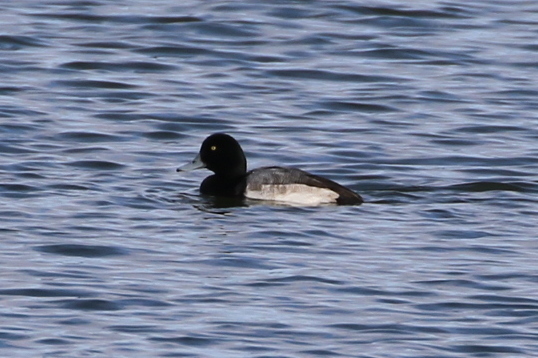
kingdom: Animalia
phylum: Chordata
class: Aves
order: Anseriformes
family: Anatidae
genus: Aythya
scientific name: Aythya marila
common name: Greater scaup
